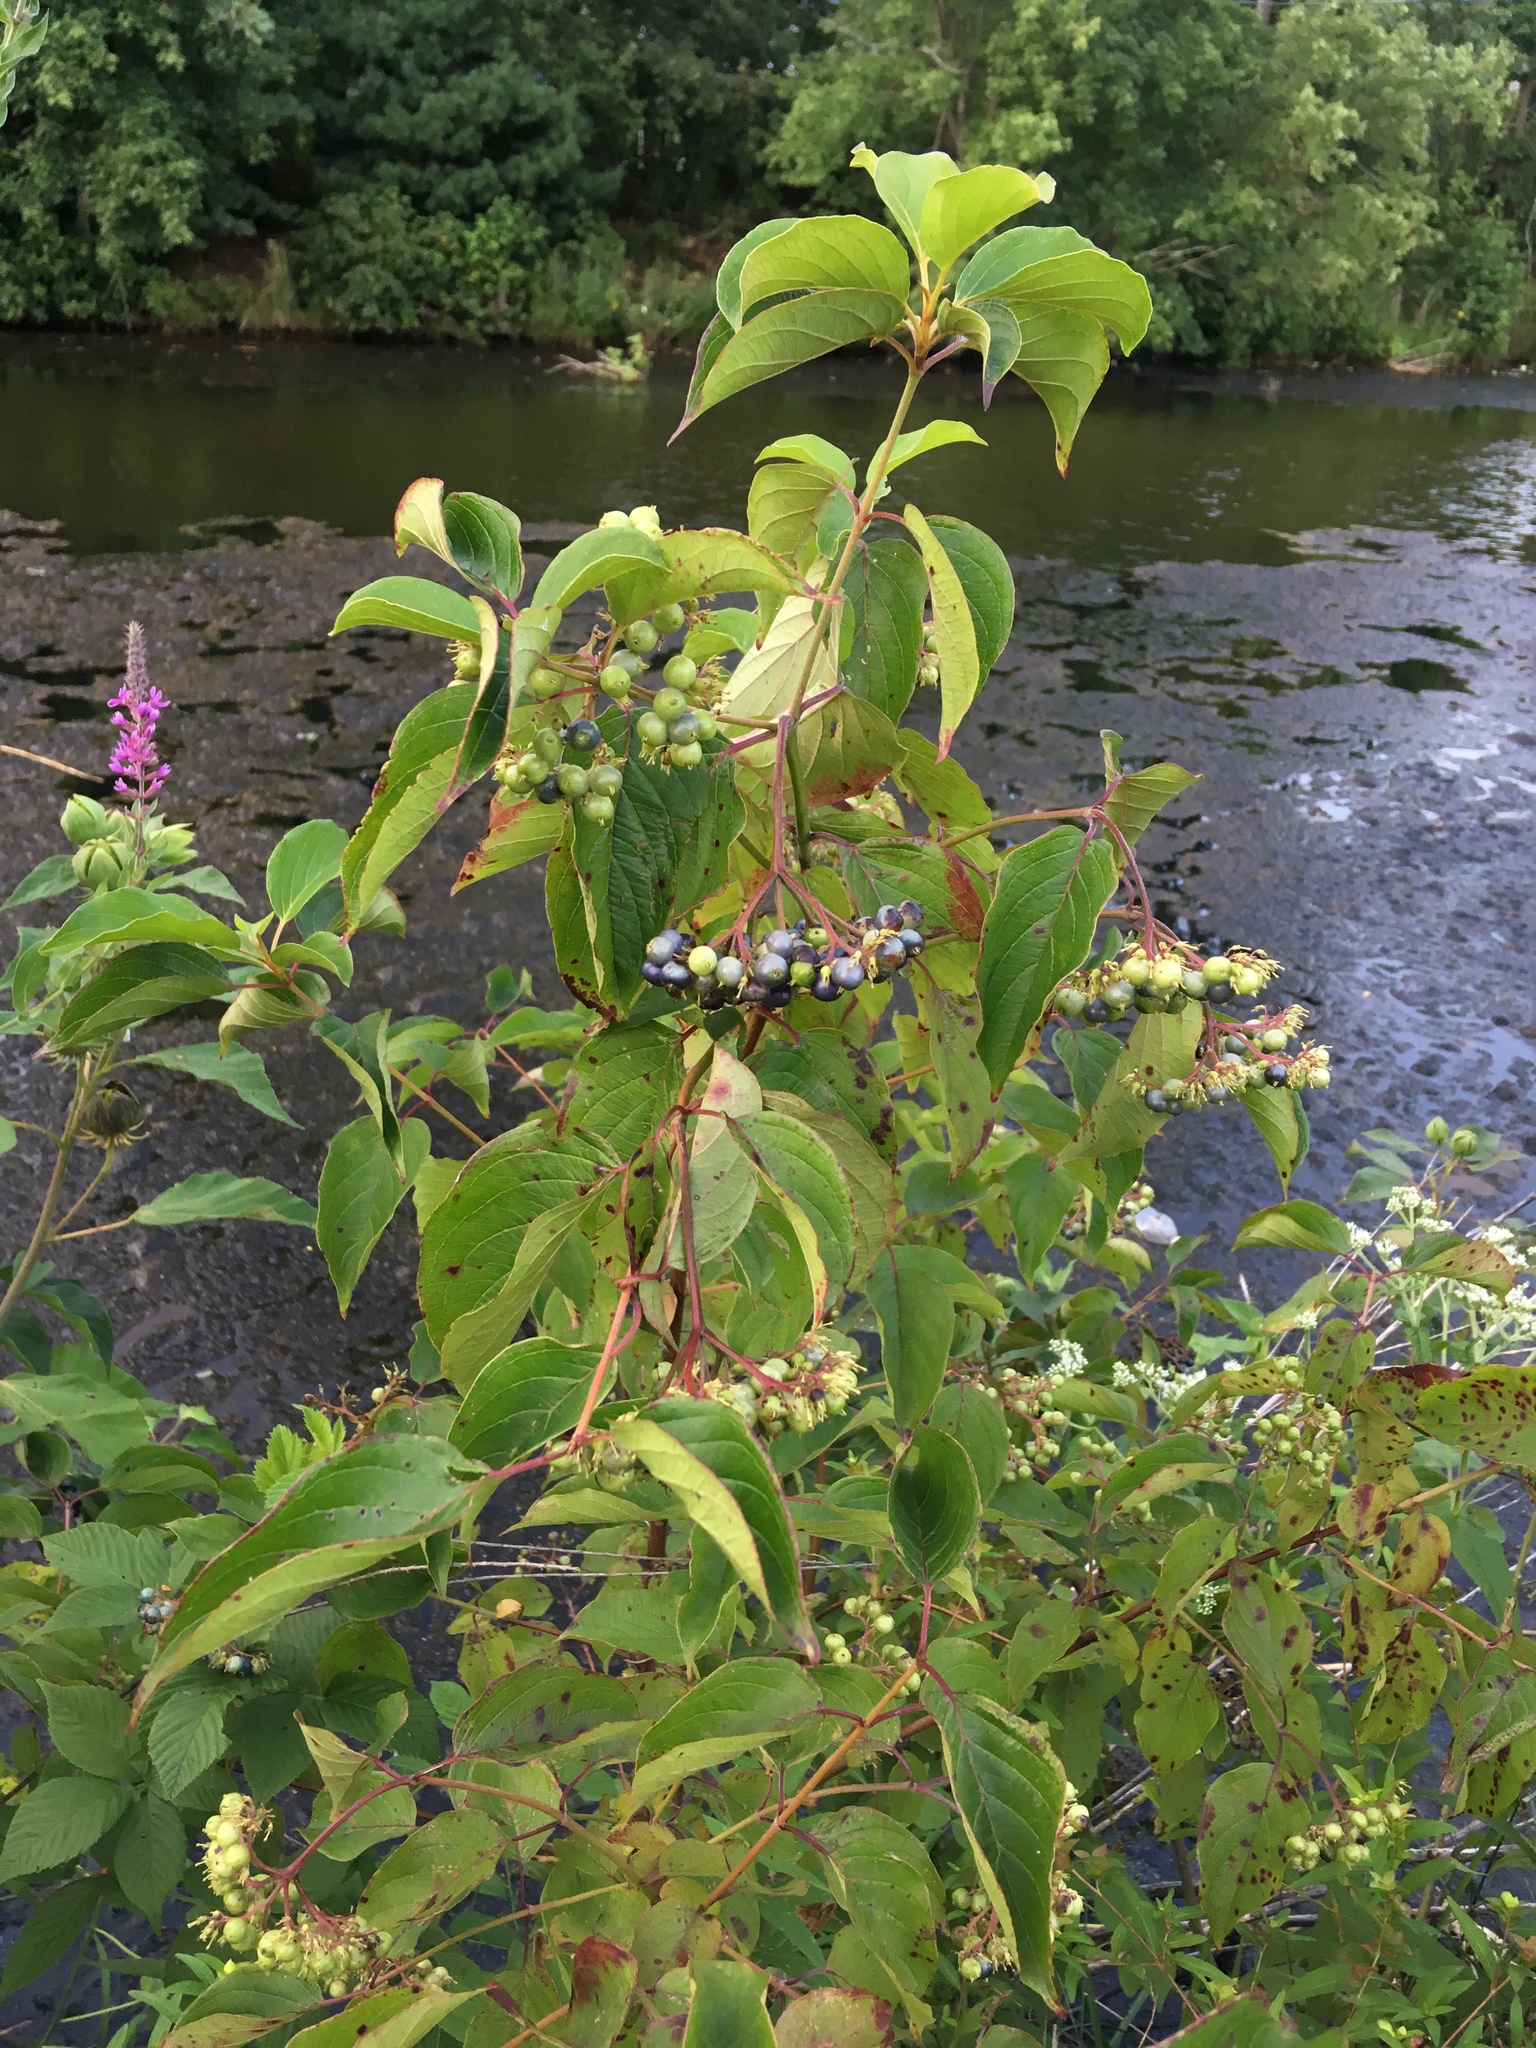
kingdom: Plantae
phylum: Tracheophyta
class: Magnoliopsida
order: Cornales
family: Cornaceae
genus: Cornus
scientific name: Cornus amomum
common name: Silky dogwood
